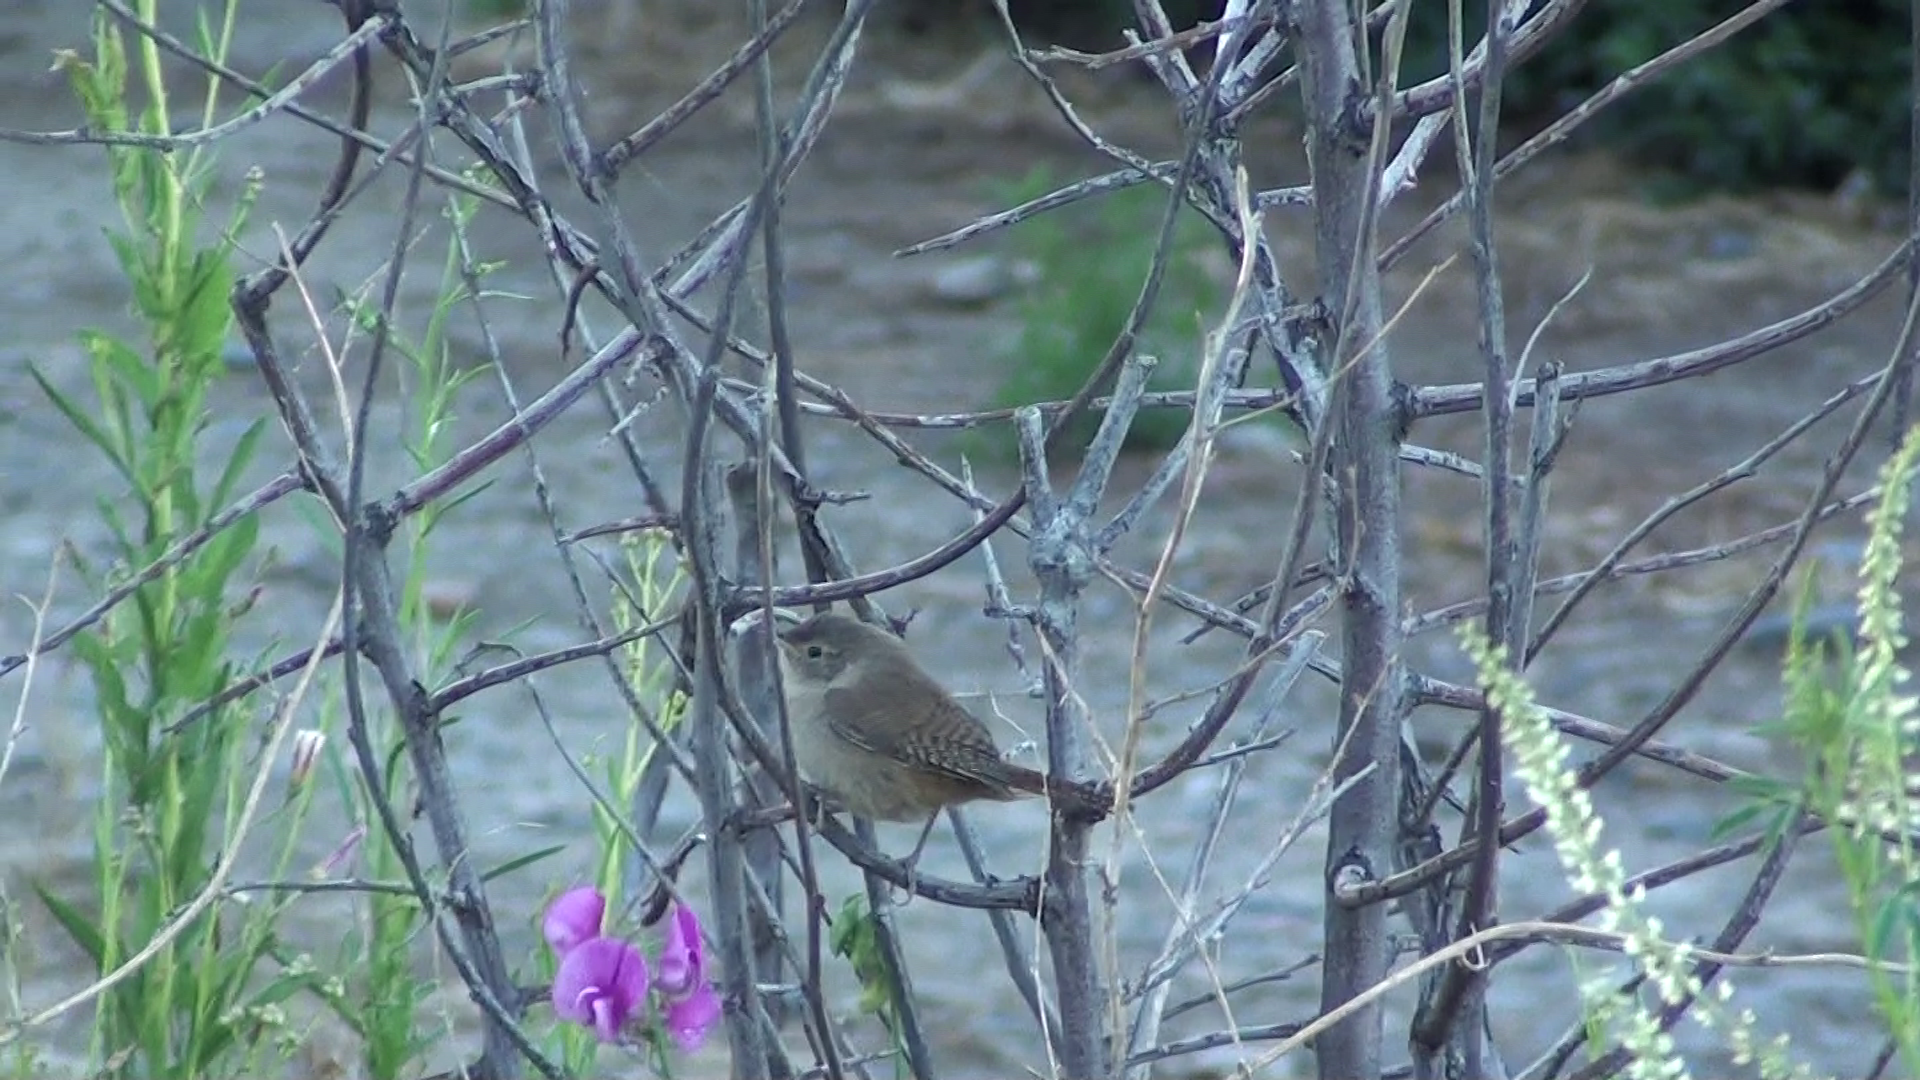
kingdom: Animalia
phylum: Chordata
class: Aves
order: Passeriformes
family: Troglodytidae
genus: Troglodytes
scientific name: Troglodytes aedon
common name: House wren
